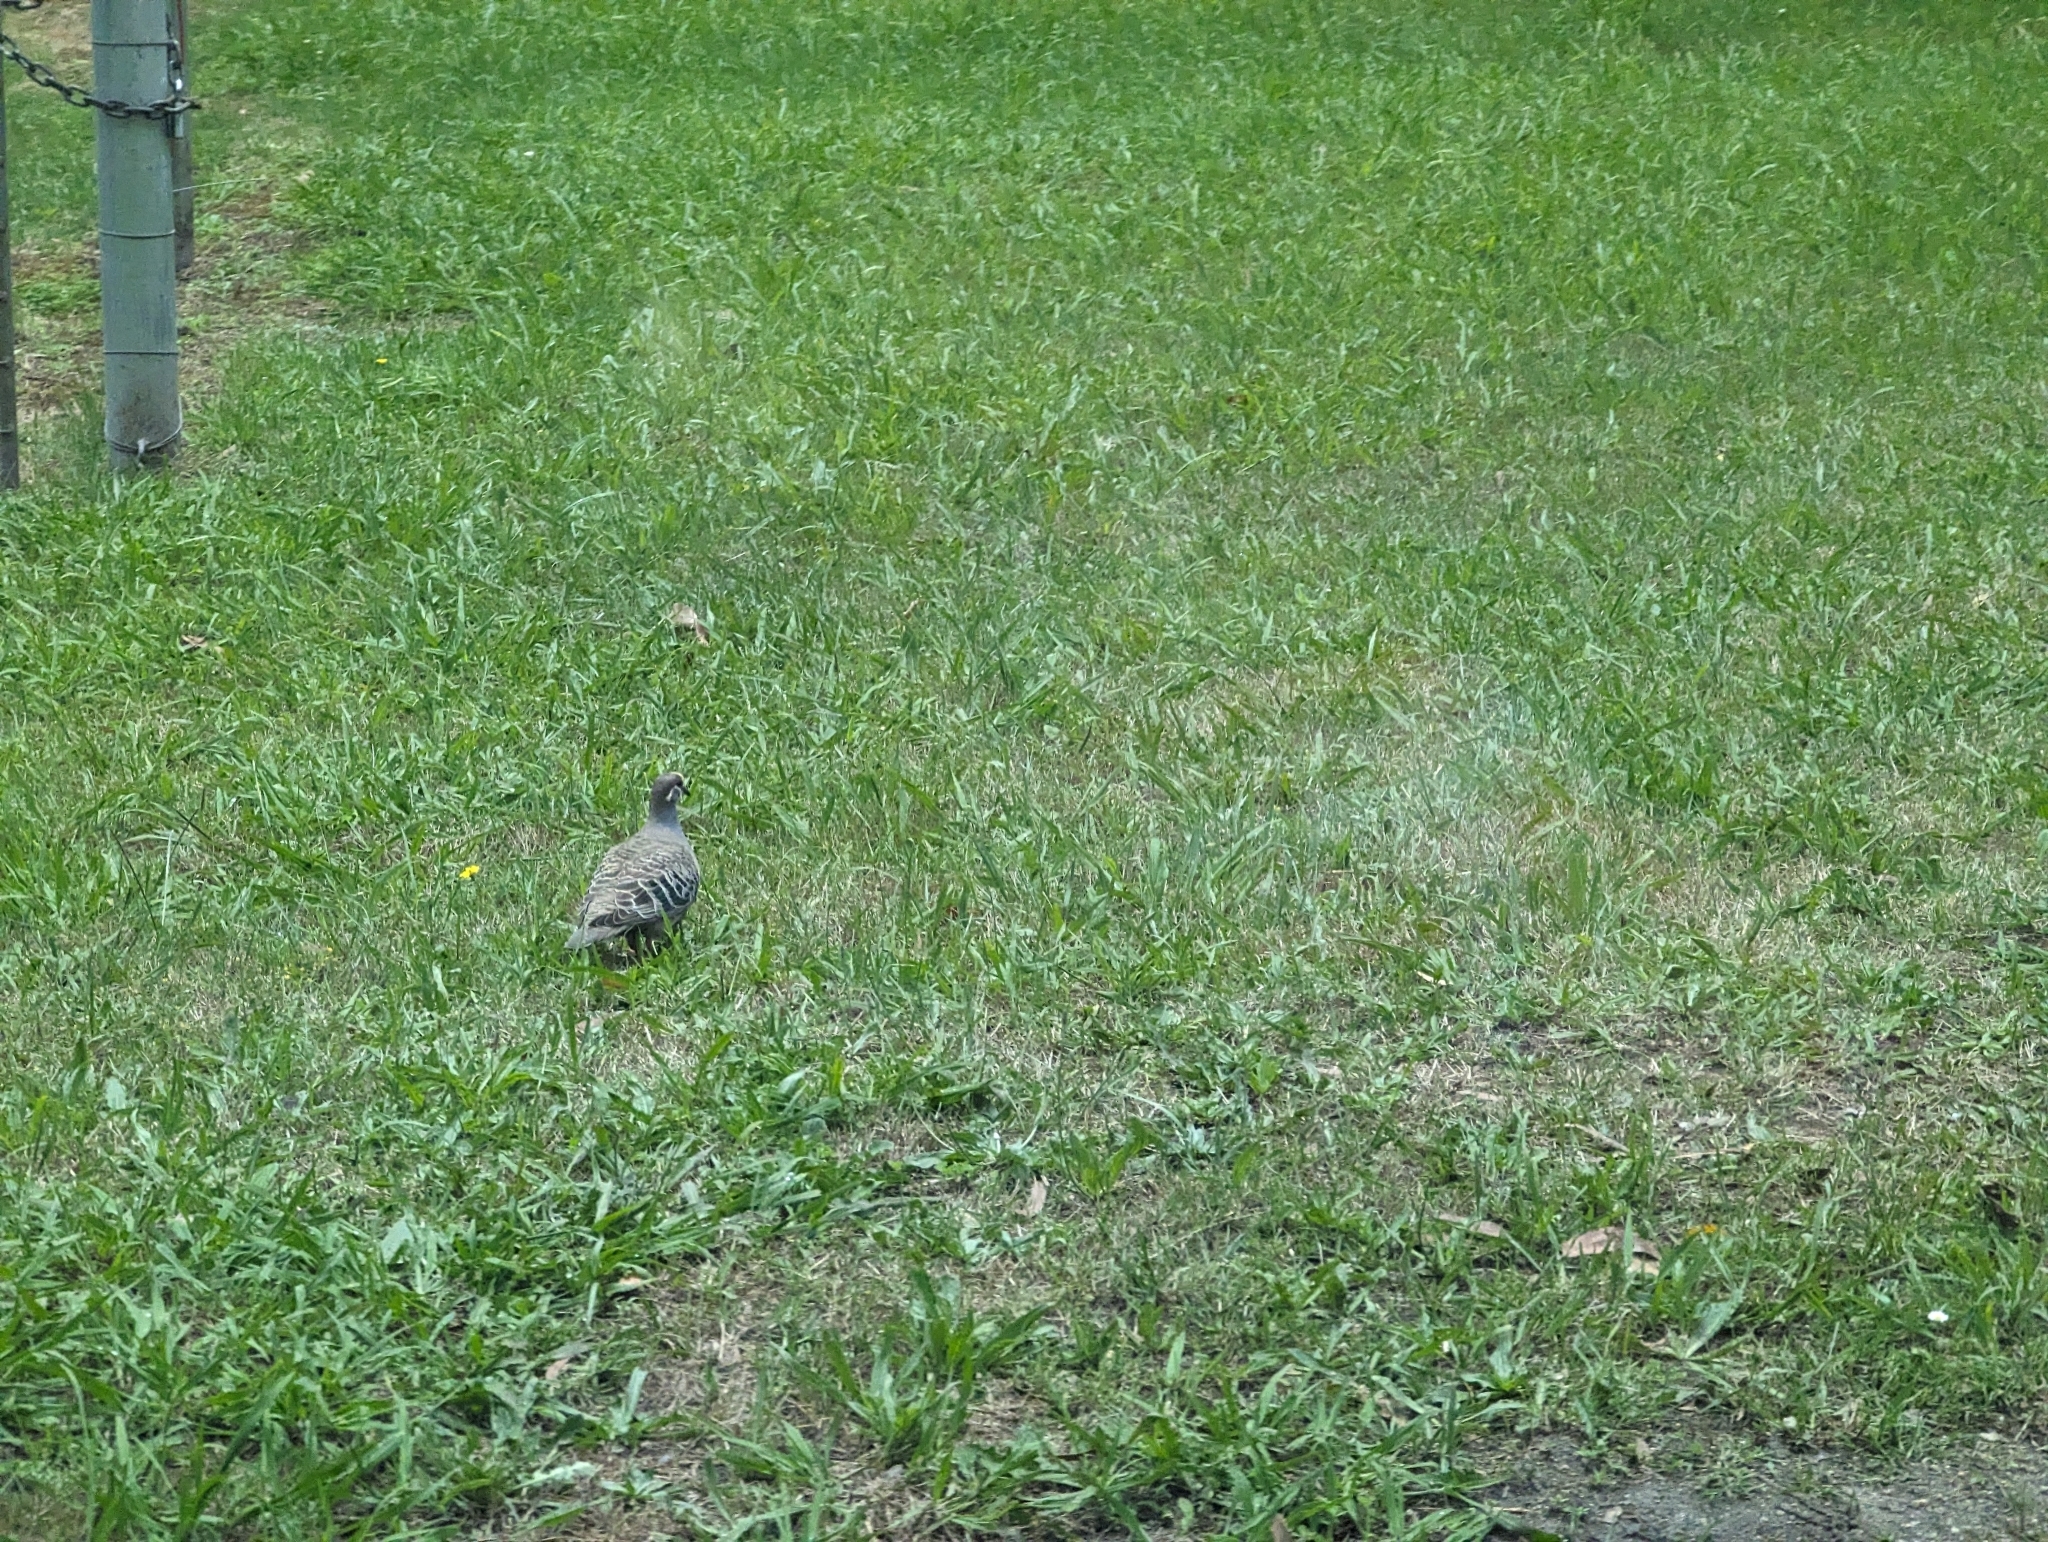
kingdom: Animalia
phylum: Chordata
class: Aves
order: Columbiformes
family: Columbidae
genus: Phaps
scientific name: Phaps chalcoptera
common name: Common bronzewing
